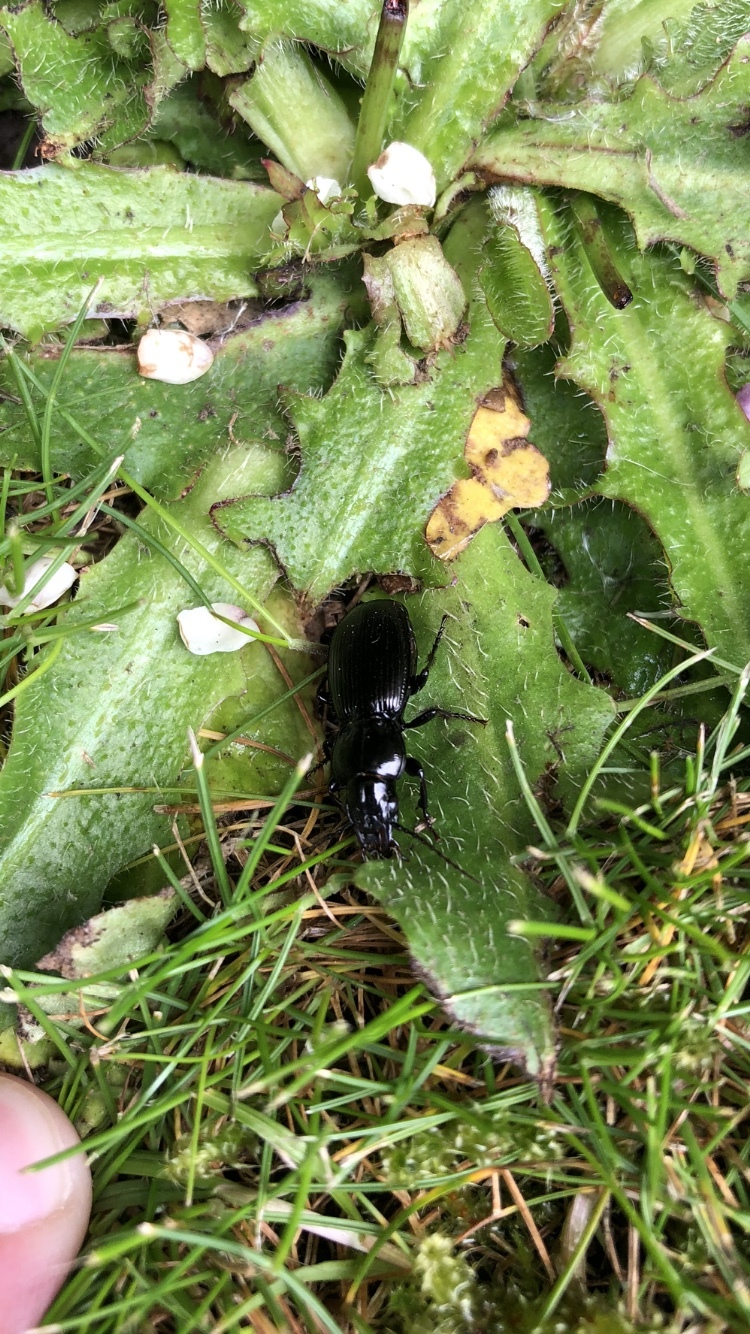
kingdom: Animalia
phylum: Arthropoda
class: Insecta
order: Coleoptera
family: Carabidae
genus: Pterostichus
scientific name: Pterostichus madidus
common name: Black clock
